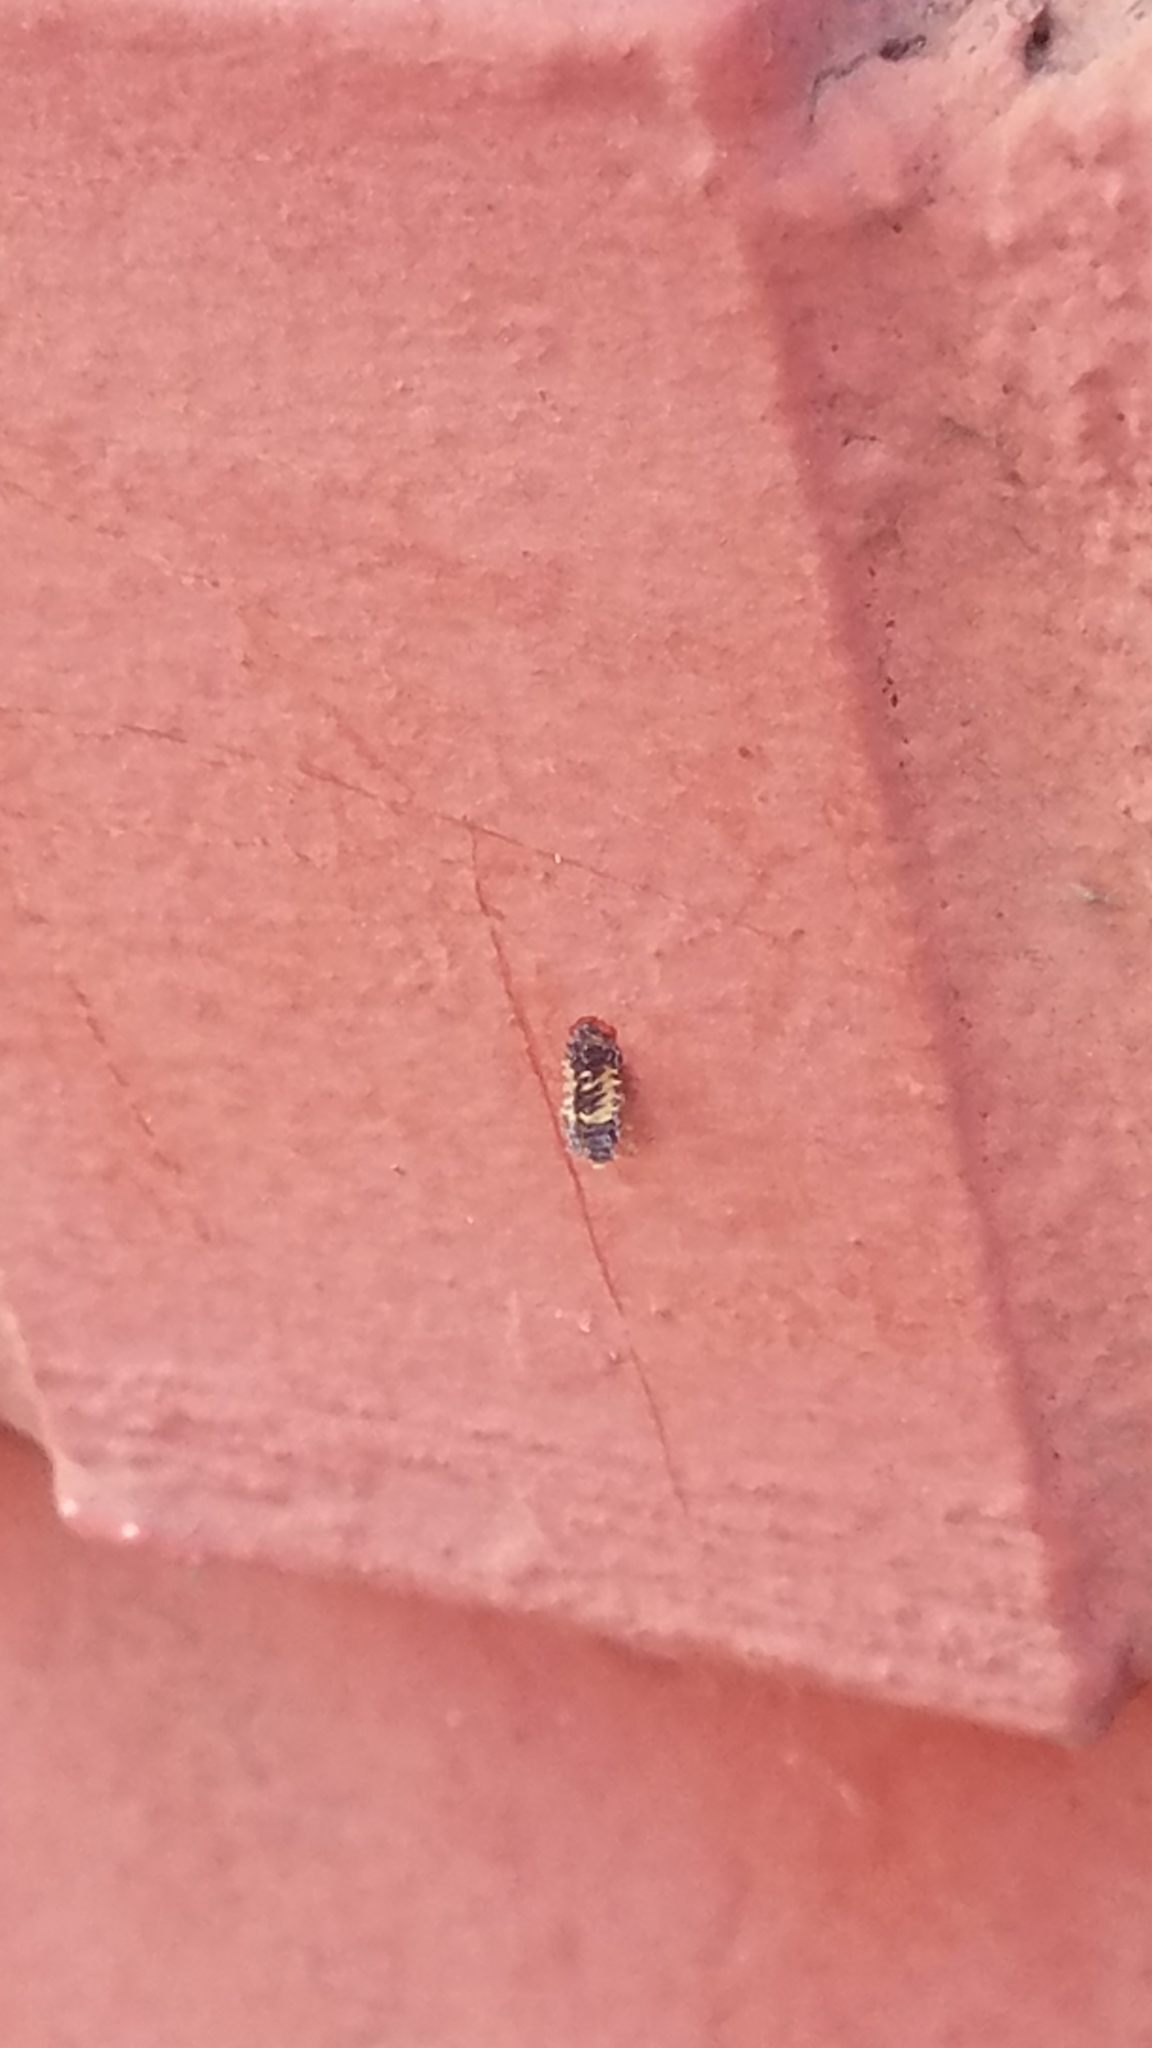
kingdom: Animalia
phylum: Arthropoda
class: Insecta
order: Coleoptera
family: Coccinellidae
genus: Harmonia
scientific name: Harmonia axyridis
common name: Harlequin ladybird
